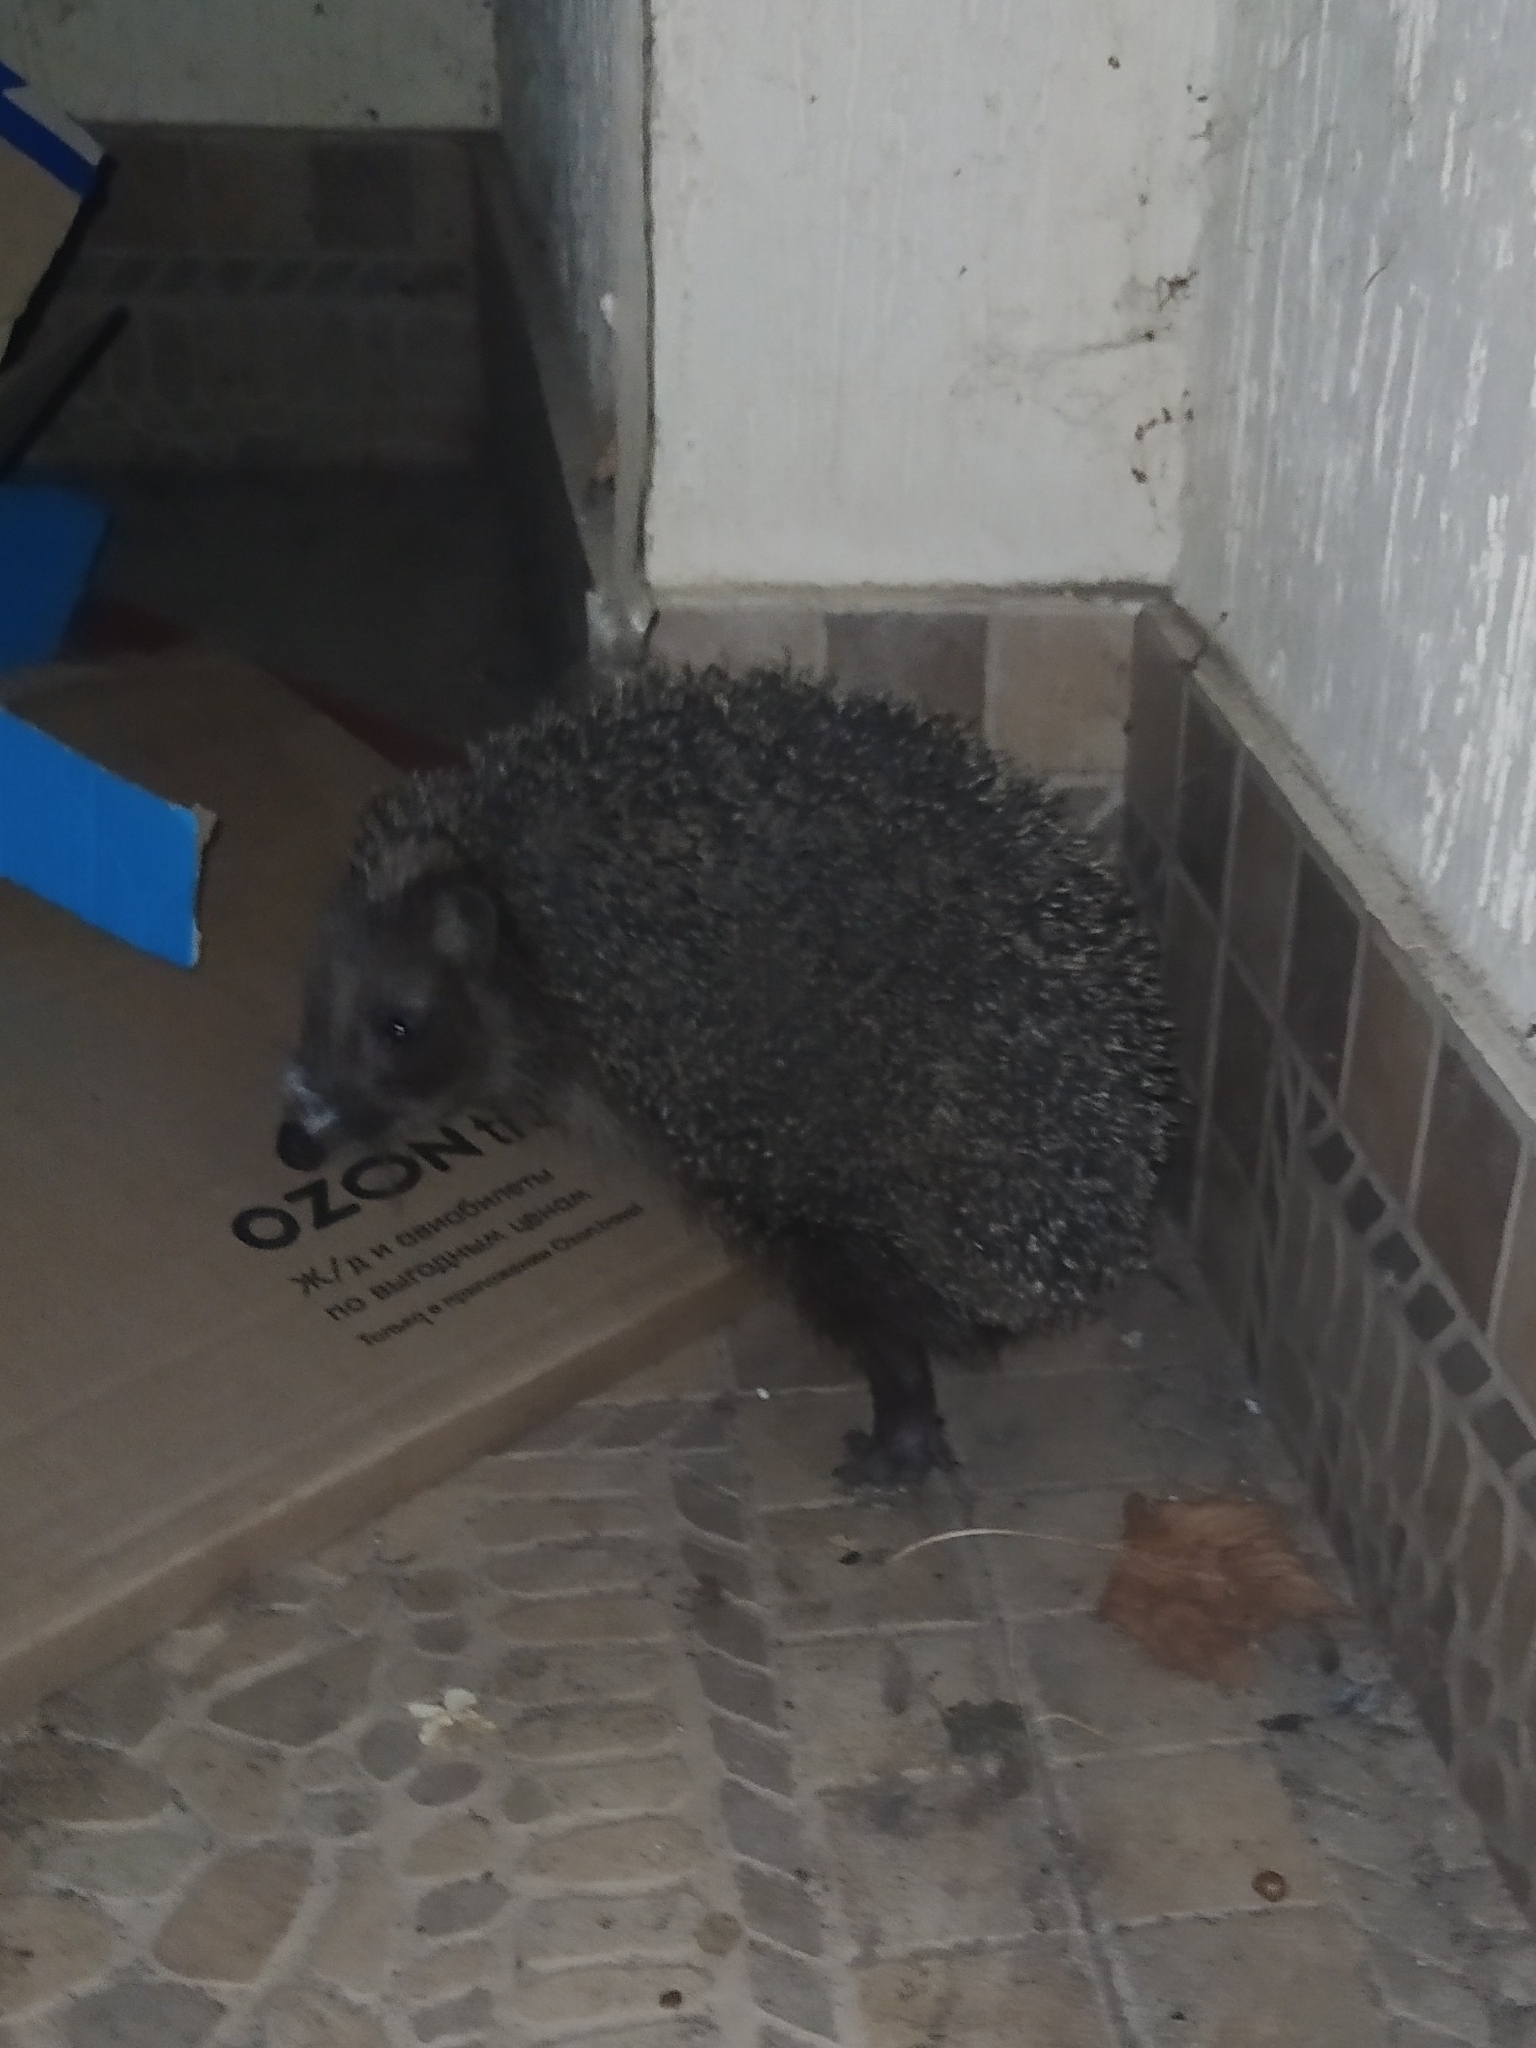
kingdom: Animalia
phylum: Chordata
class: Mammalia
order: Erinaceomorpha
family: Erinaceidae
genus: Erinaceus
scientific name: Erinaceus roumanicus
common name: Northern white-breasted hedgehog
